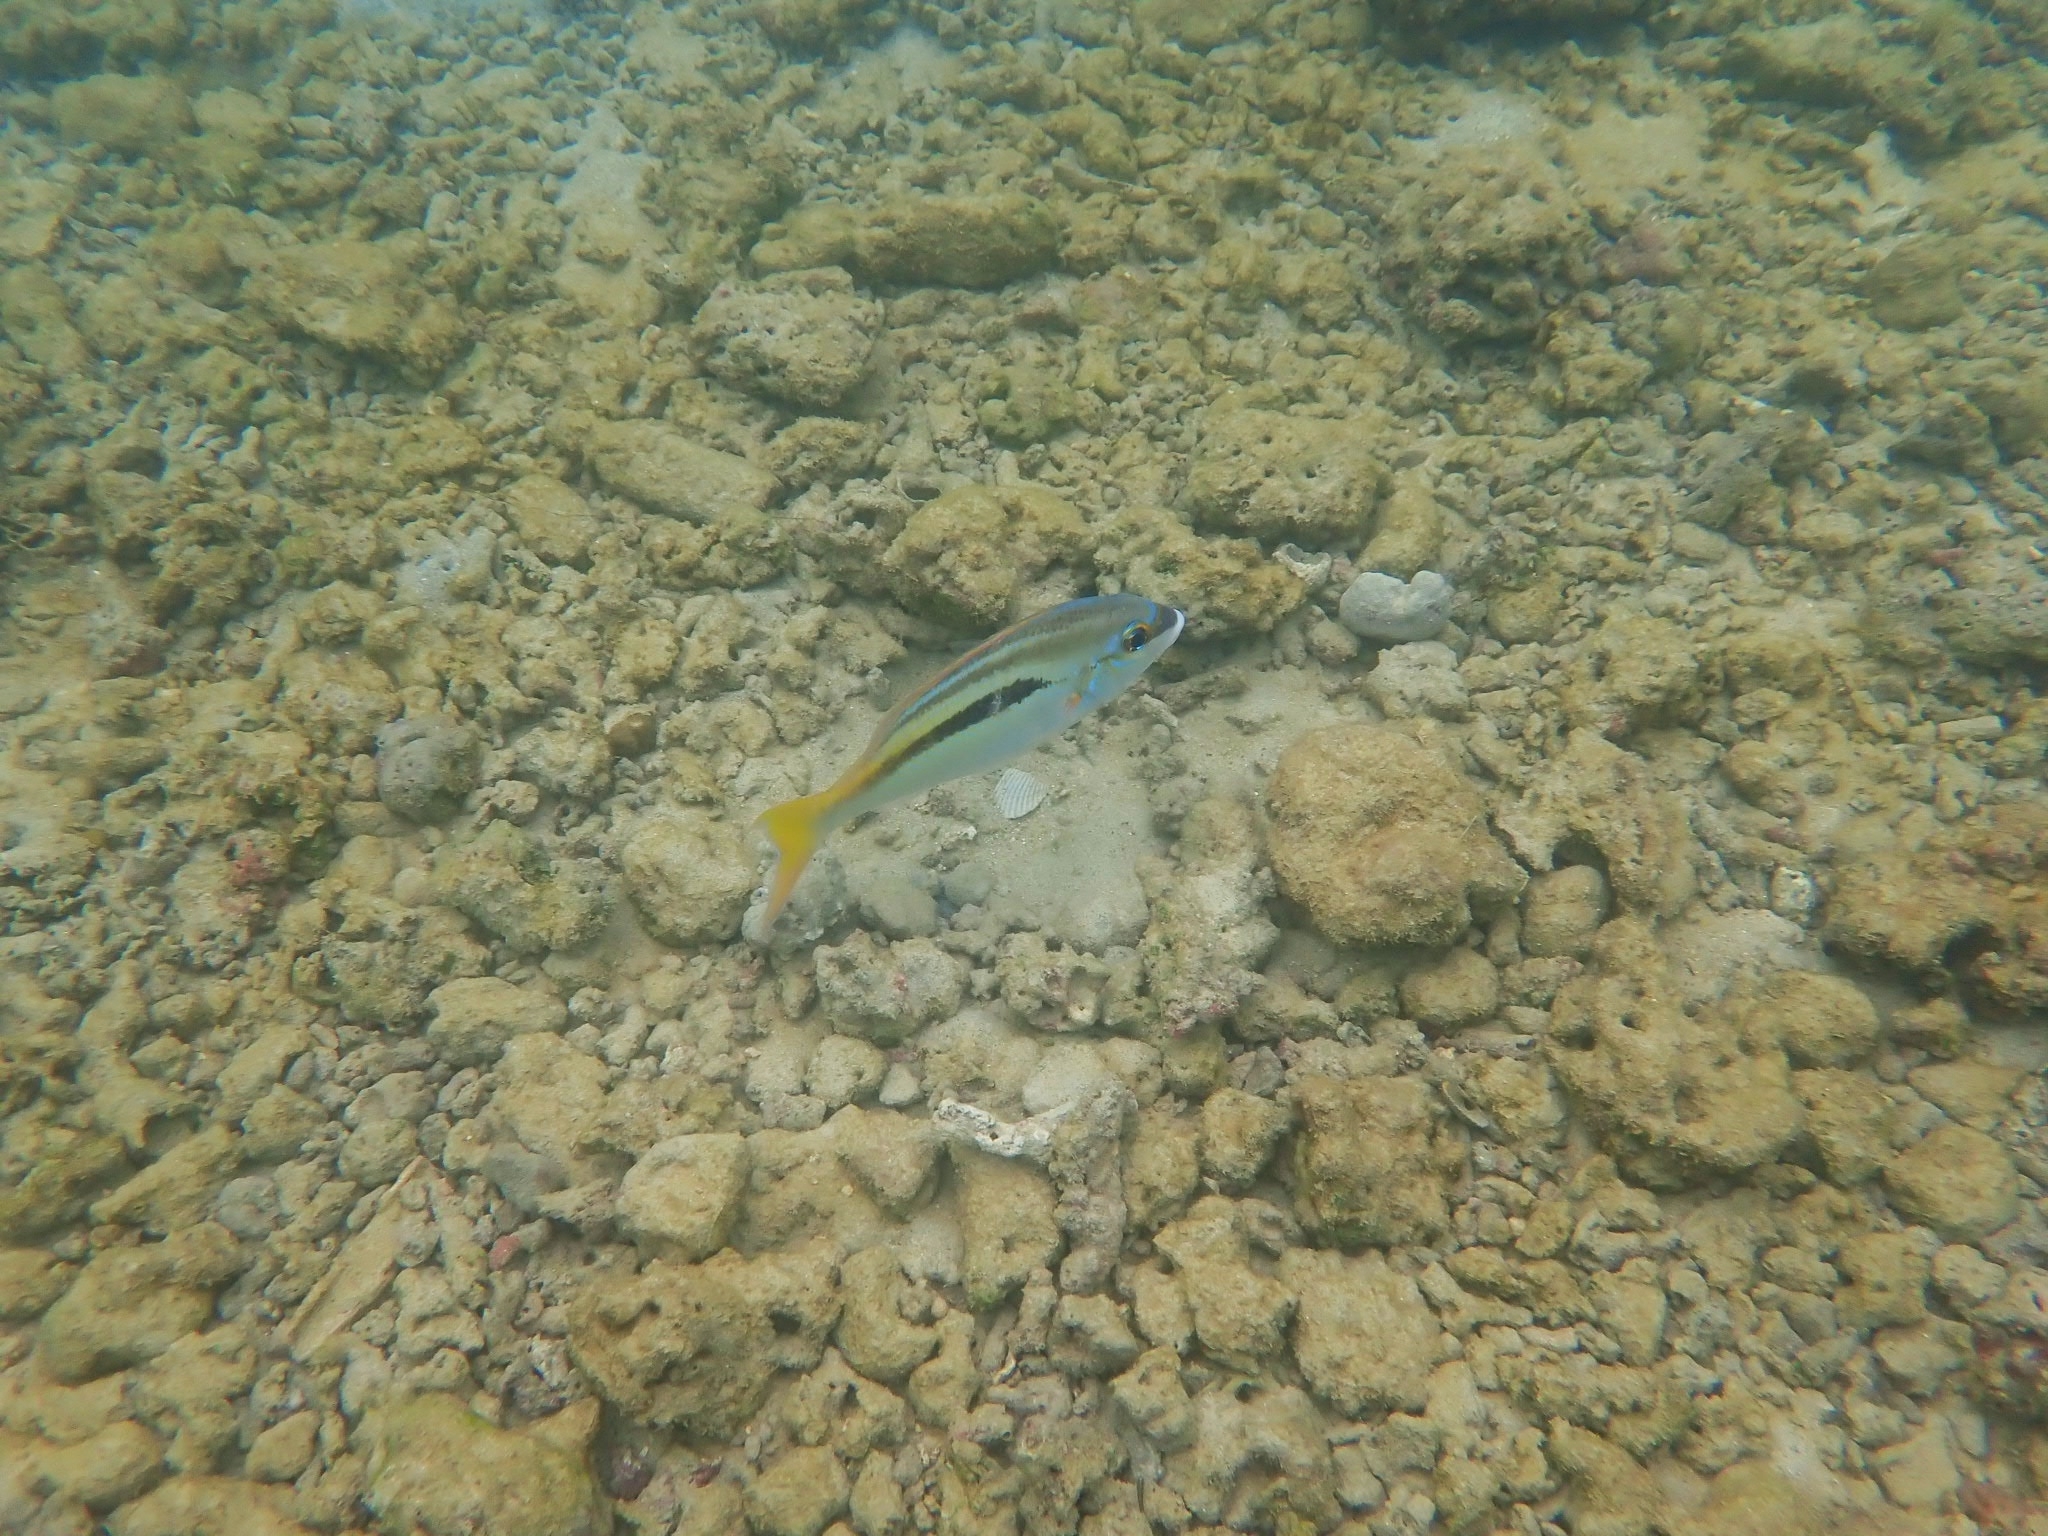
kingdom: Animalia
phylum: Chordata
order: Perciformes
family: Nemipteridae
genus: Scolopsis
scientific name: Scolopsis monogramma
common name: Monogrammed monocle bream
